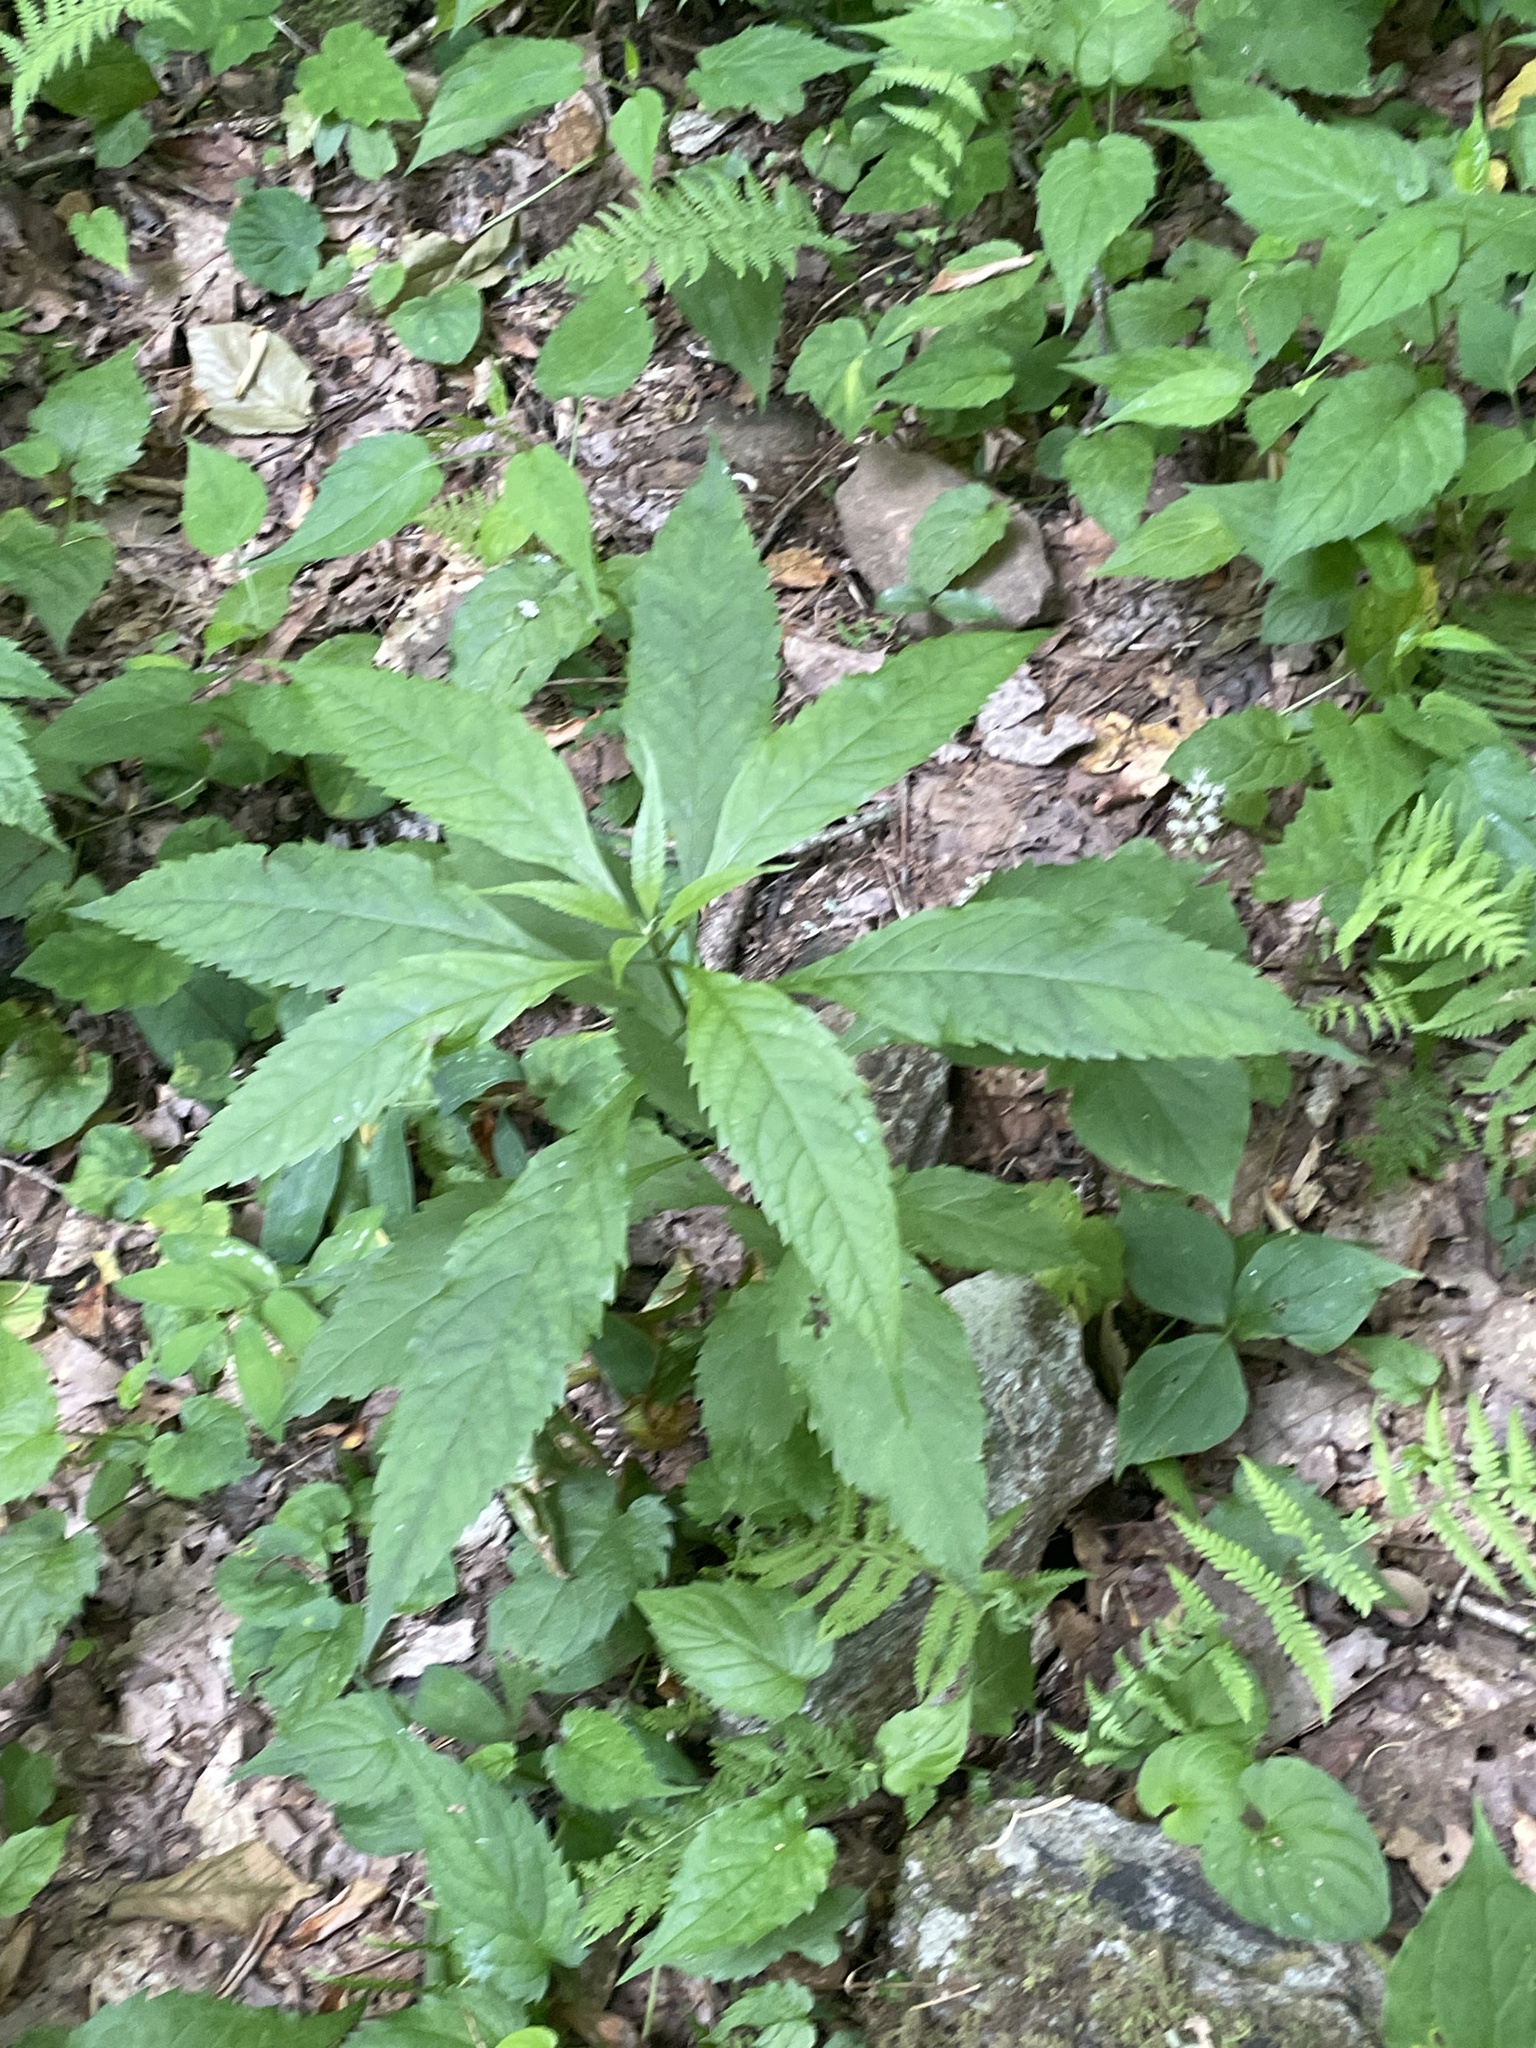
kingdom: Plantae
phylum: Tracheophyta
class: Magnoliopsida
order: Asterales
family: Asteraceae
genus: Eutrochium
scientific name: Eutrochium fistulosum
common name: Trumpetweed
